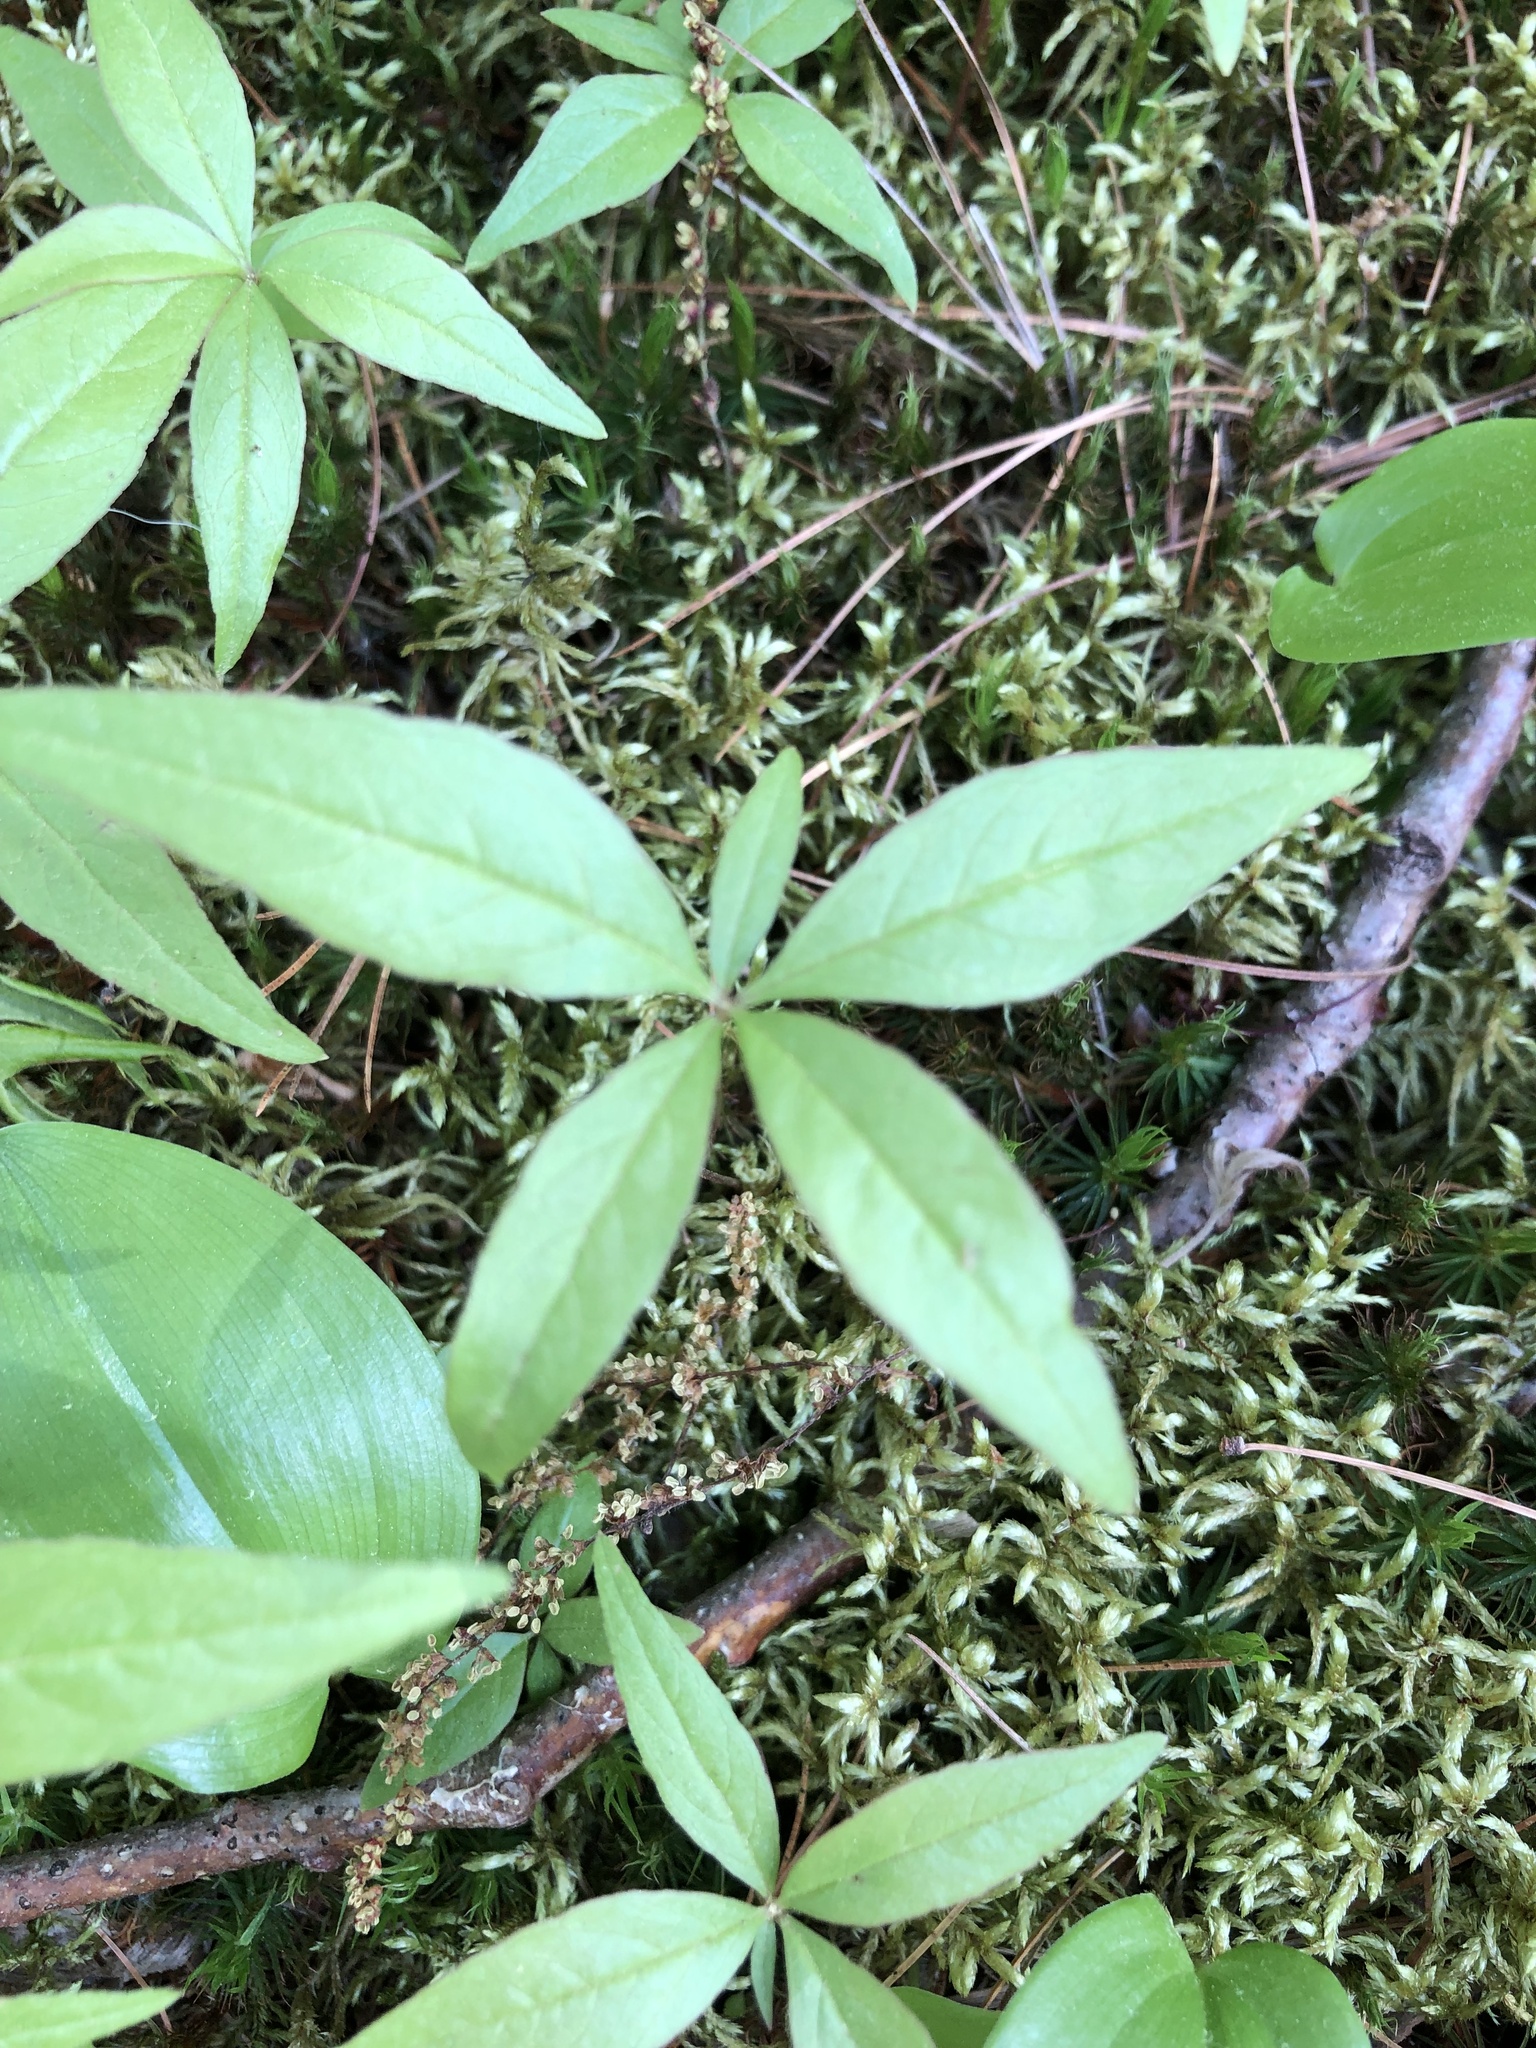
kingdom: Plantae
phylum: Tracheophyta
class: Magnoliopsida
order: Ericales
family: Primulaceae
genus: Lysimachia
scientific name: Lysimachia borealis
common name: American starflower
